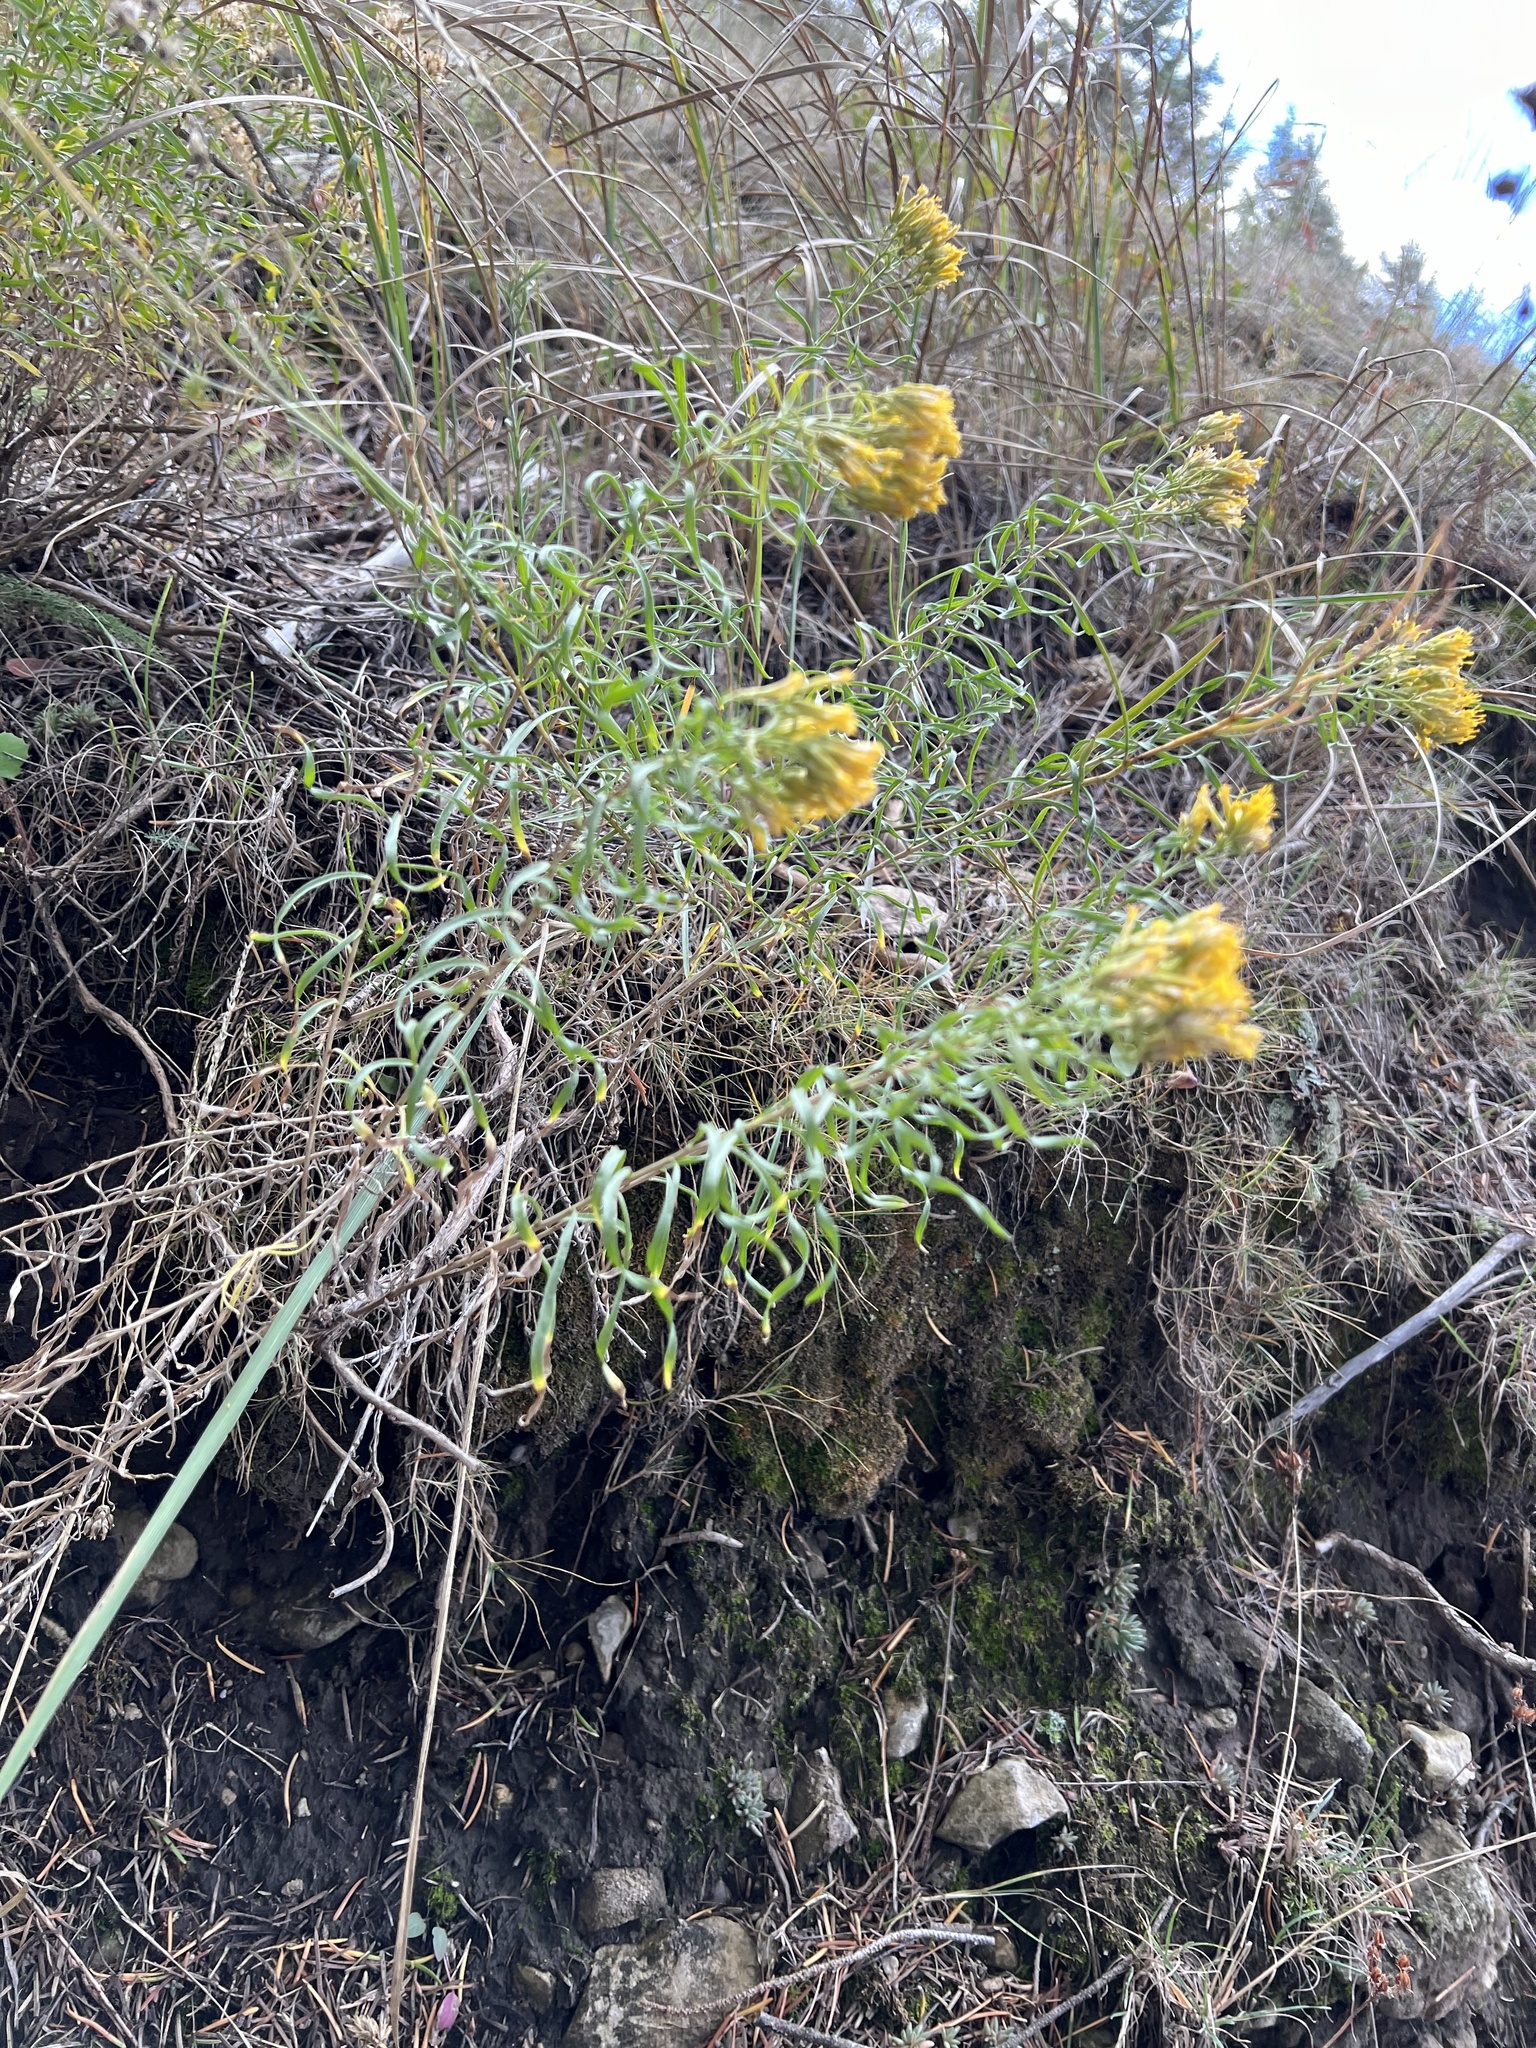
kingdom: Plantae
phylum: Tracheophyta
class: Magnoliopsida
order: Asterales
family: Asteraceae
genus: Chrysothamnus
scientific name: Chrysothamnus viscidiflorus
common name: Yellow rabbitbrush
